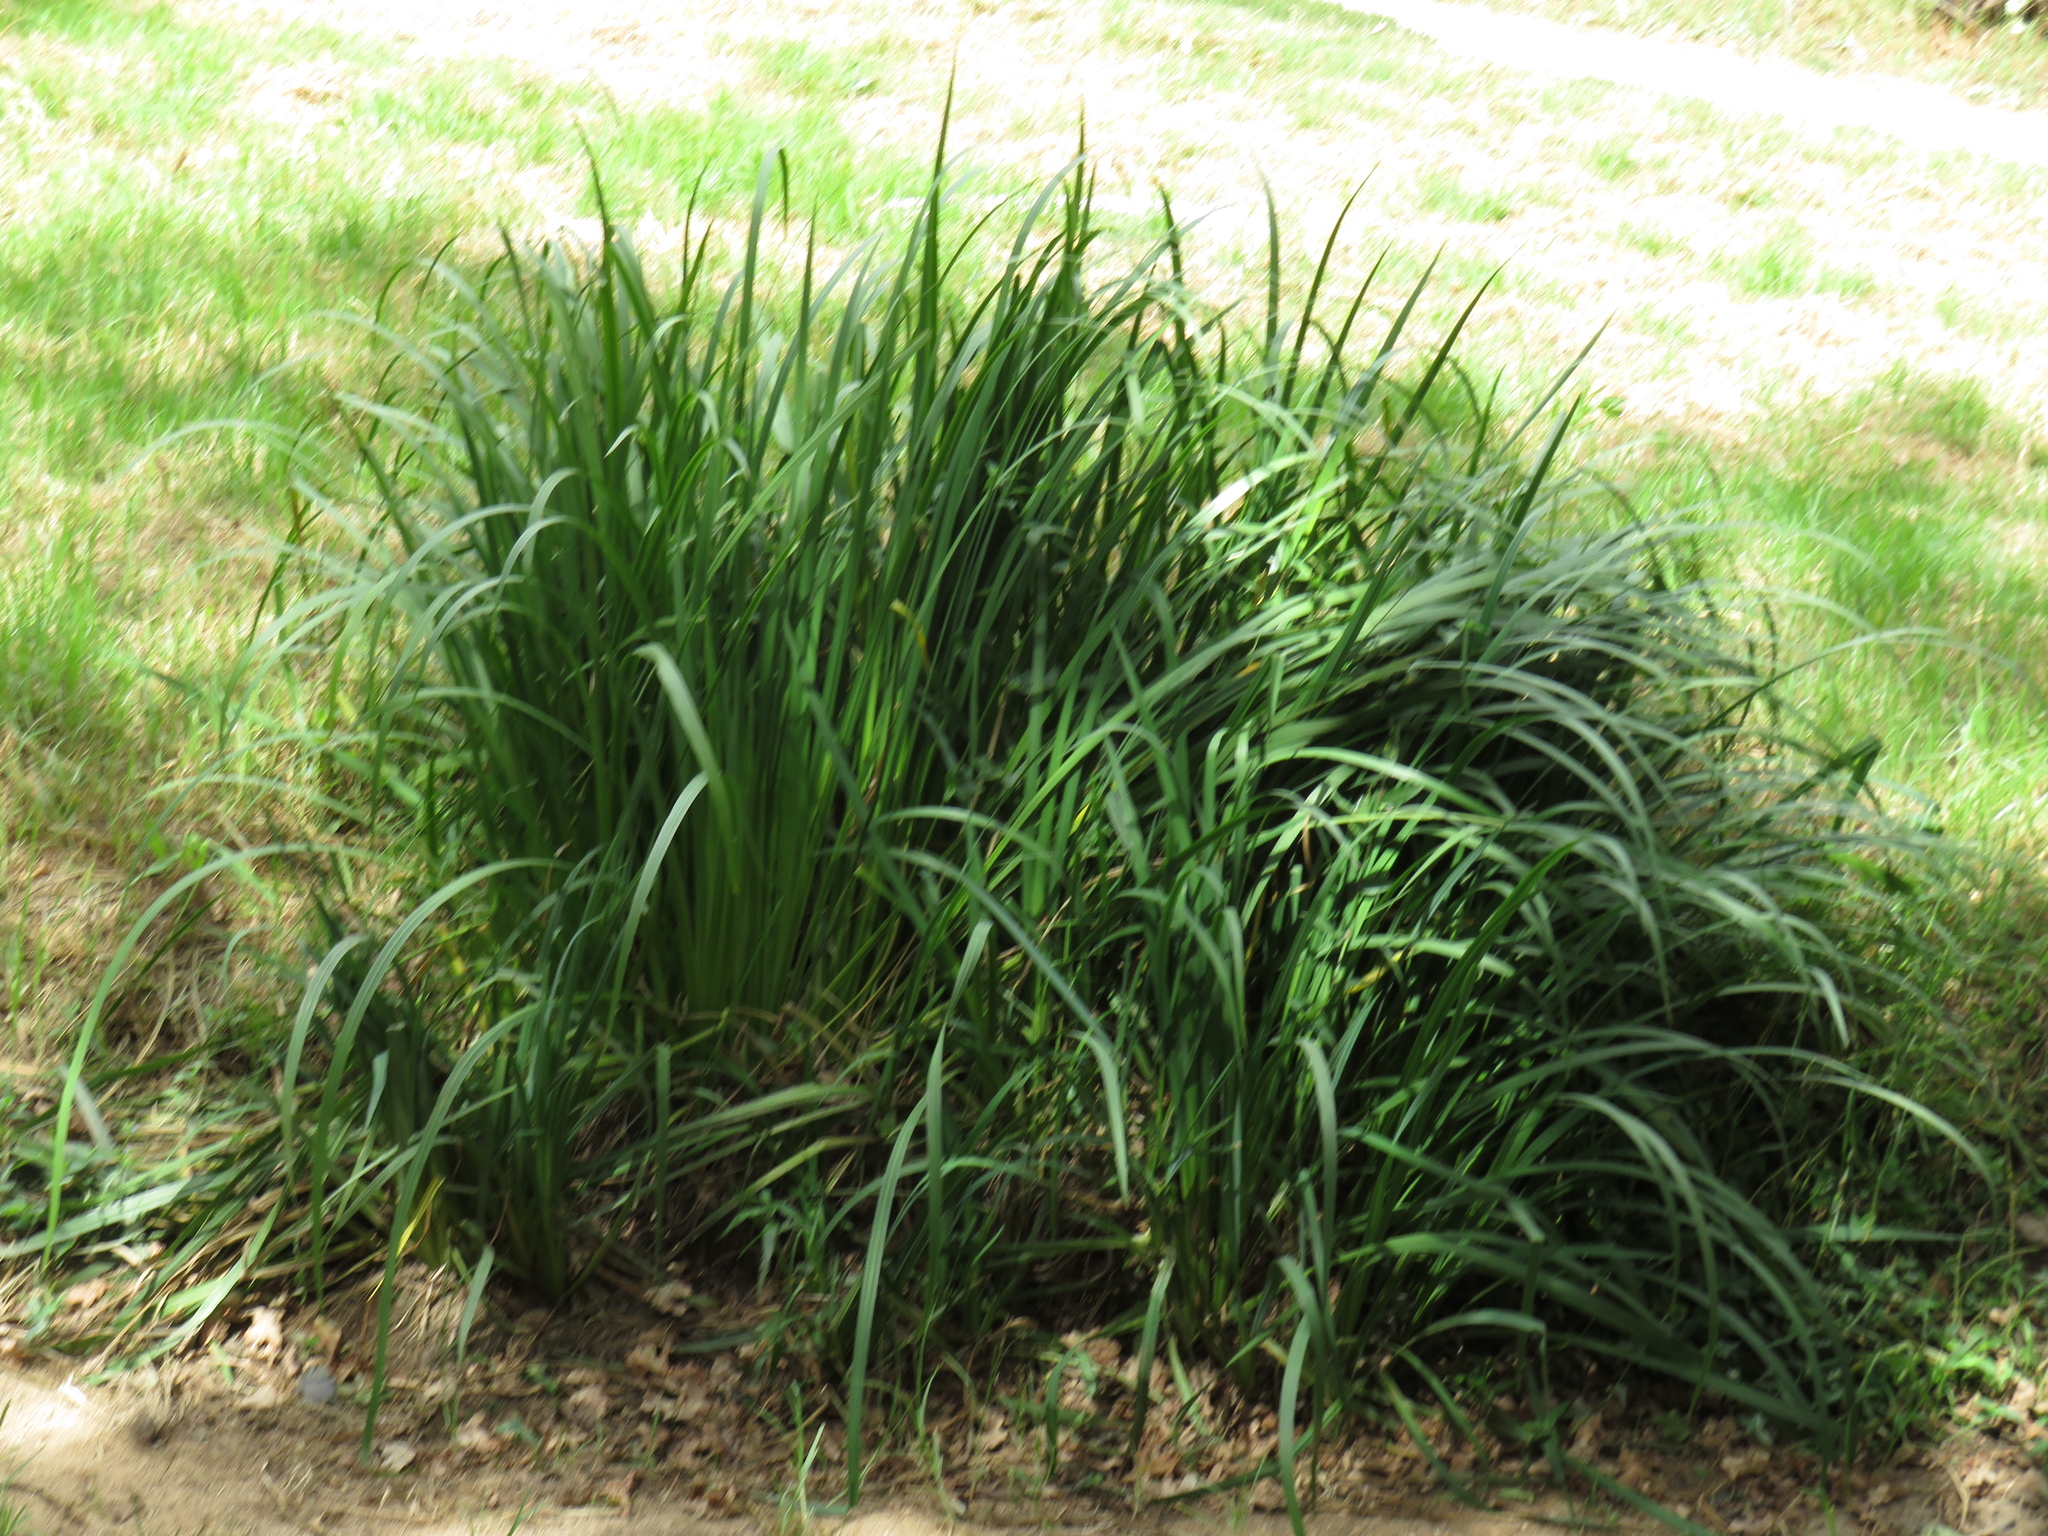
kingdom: Plantae
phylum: Tracheophyta
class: Liliopsida
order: Asparagales
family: Iridaceae
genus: Iris
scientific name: Iris pseudacorus
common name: Yellow flag
